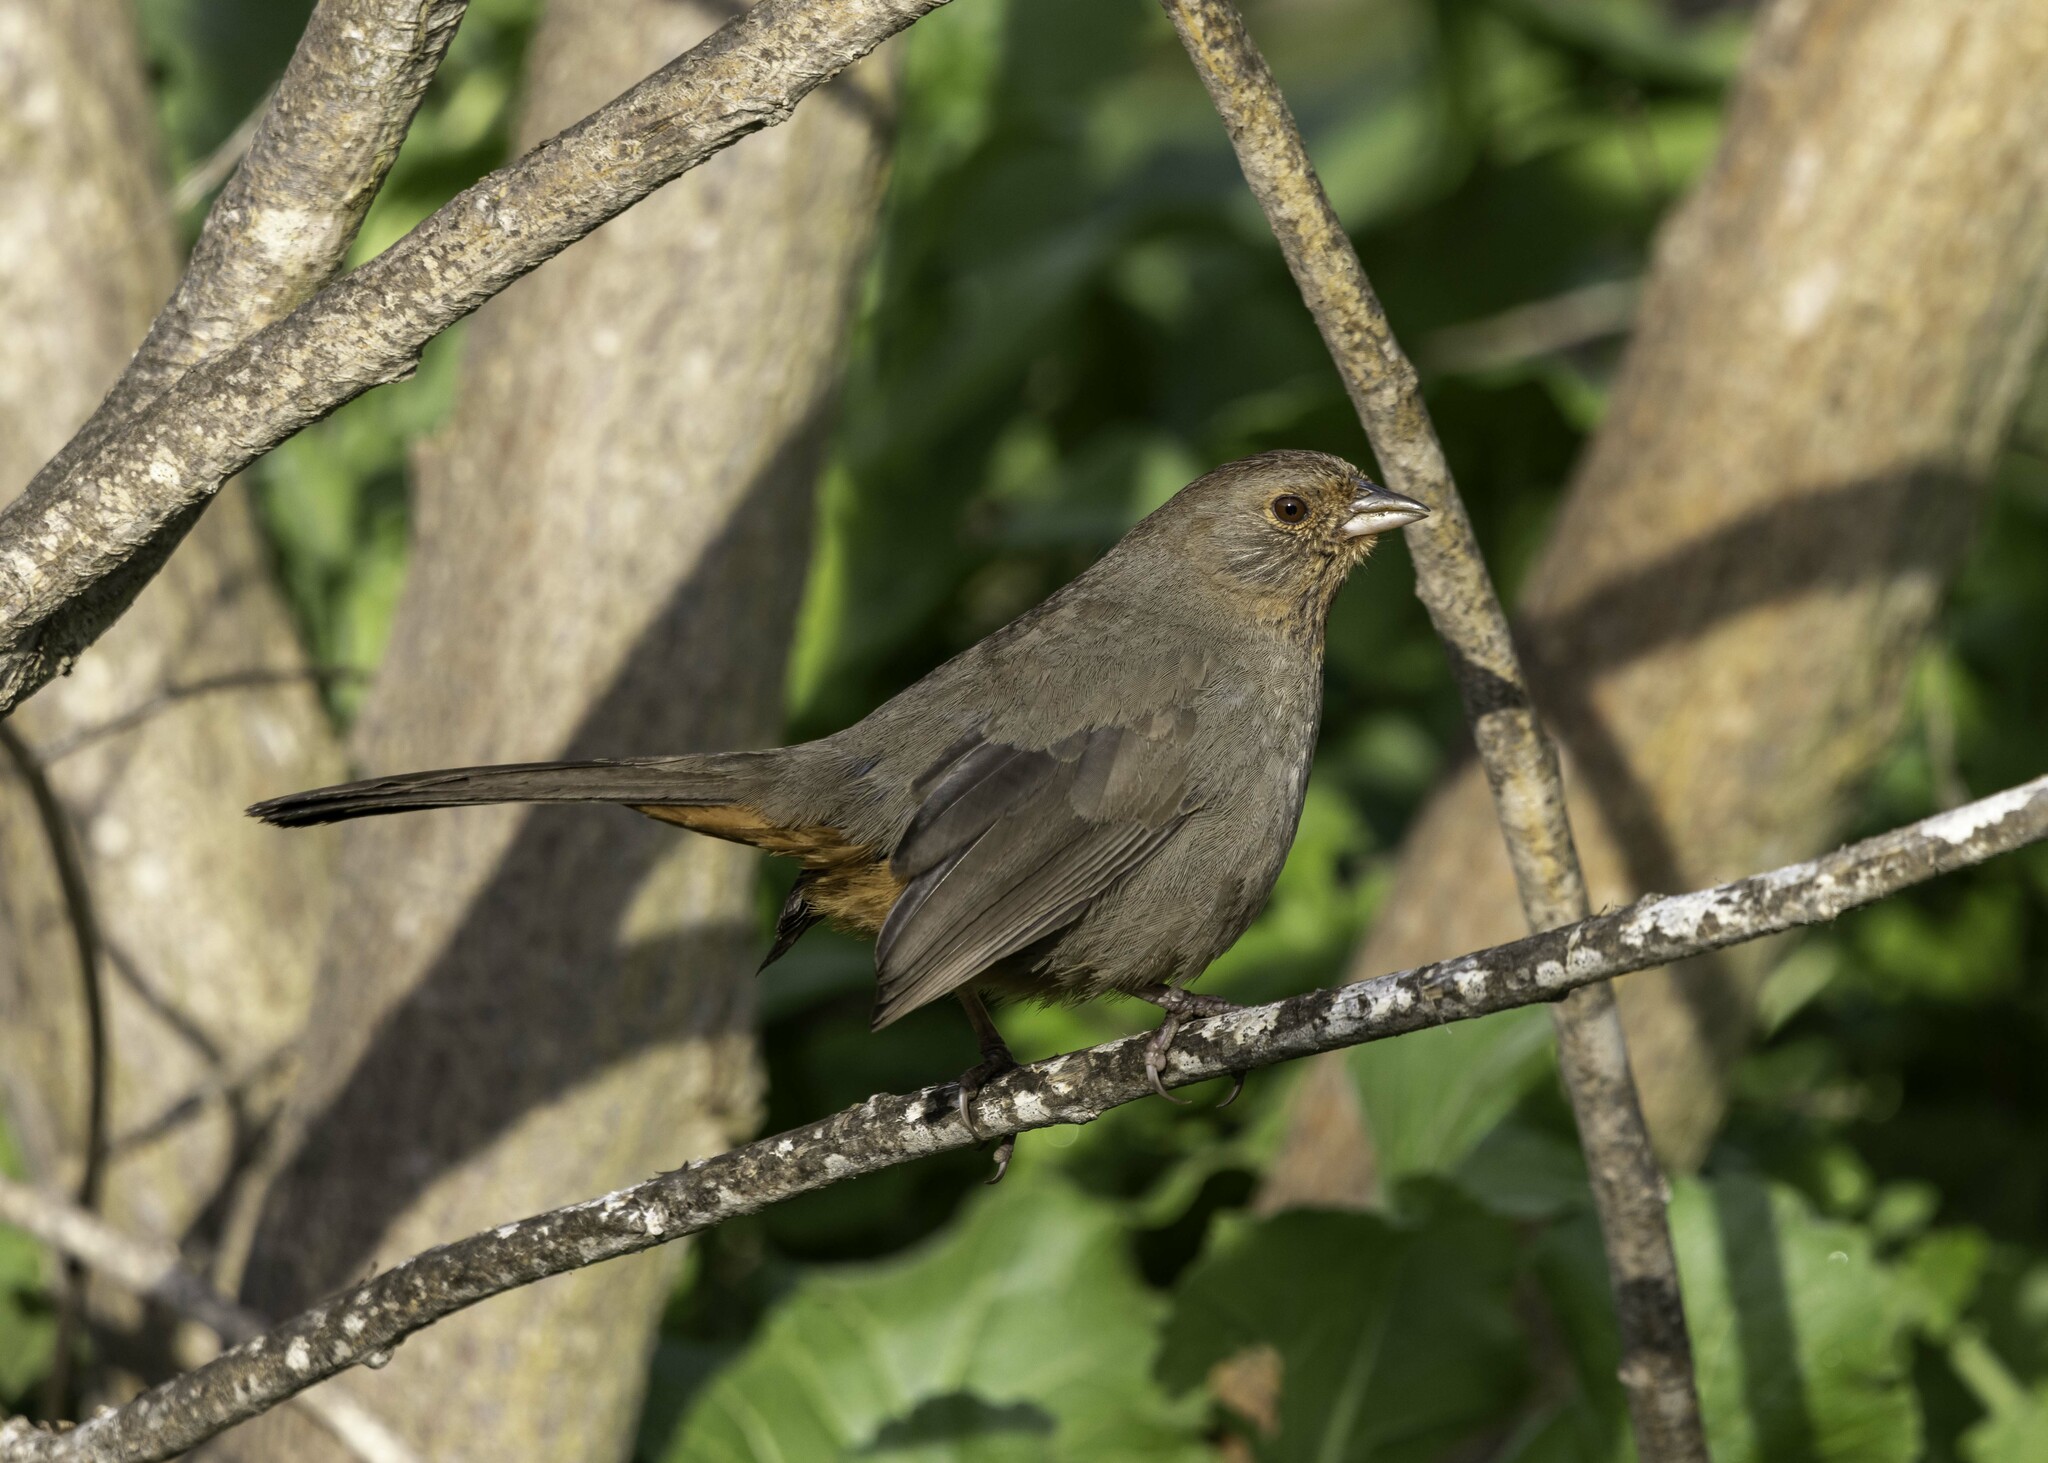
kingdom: Animalia
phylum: Chordata
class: Aves
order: Passeriformes
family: Passerellidae
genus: Melozone
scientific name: Melozone crissalis
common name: California towhee
